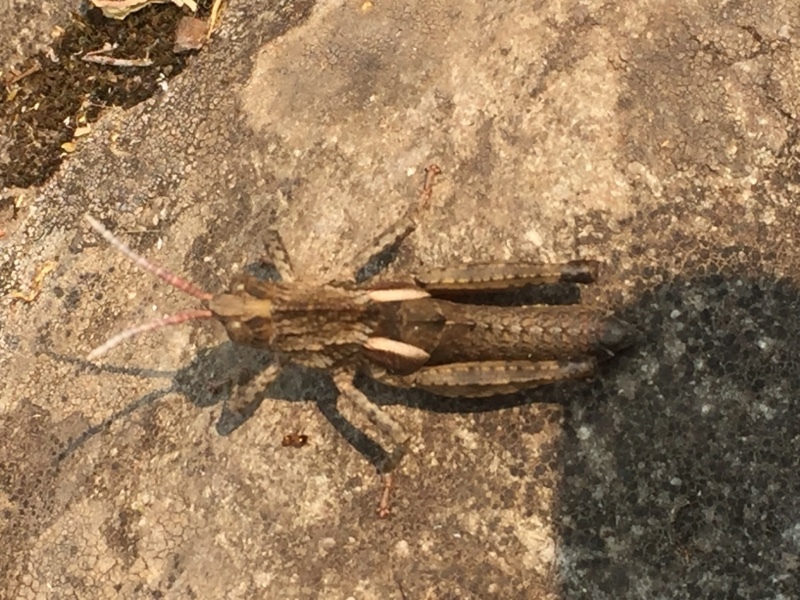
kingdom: Animalia
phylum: Arthropoda
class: Insecta
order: Orthoptera
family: Pamphagidae
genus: Eumigus
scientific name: Eumigus ayresi
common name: Ayres' stone grasshopper
